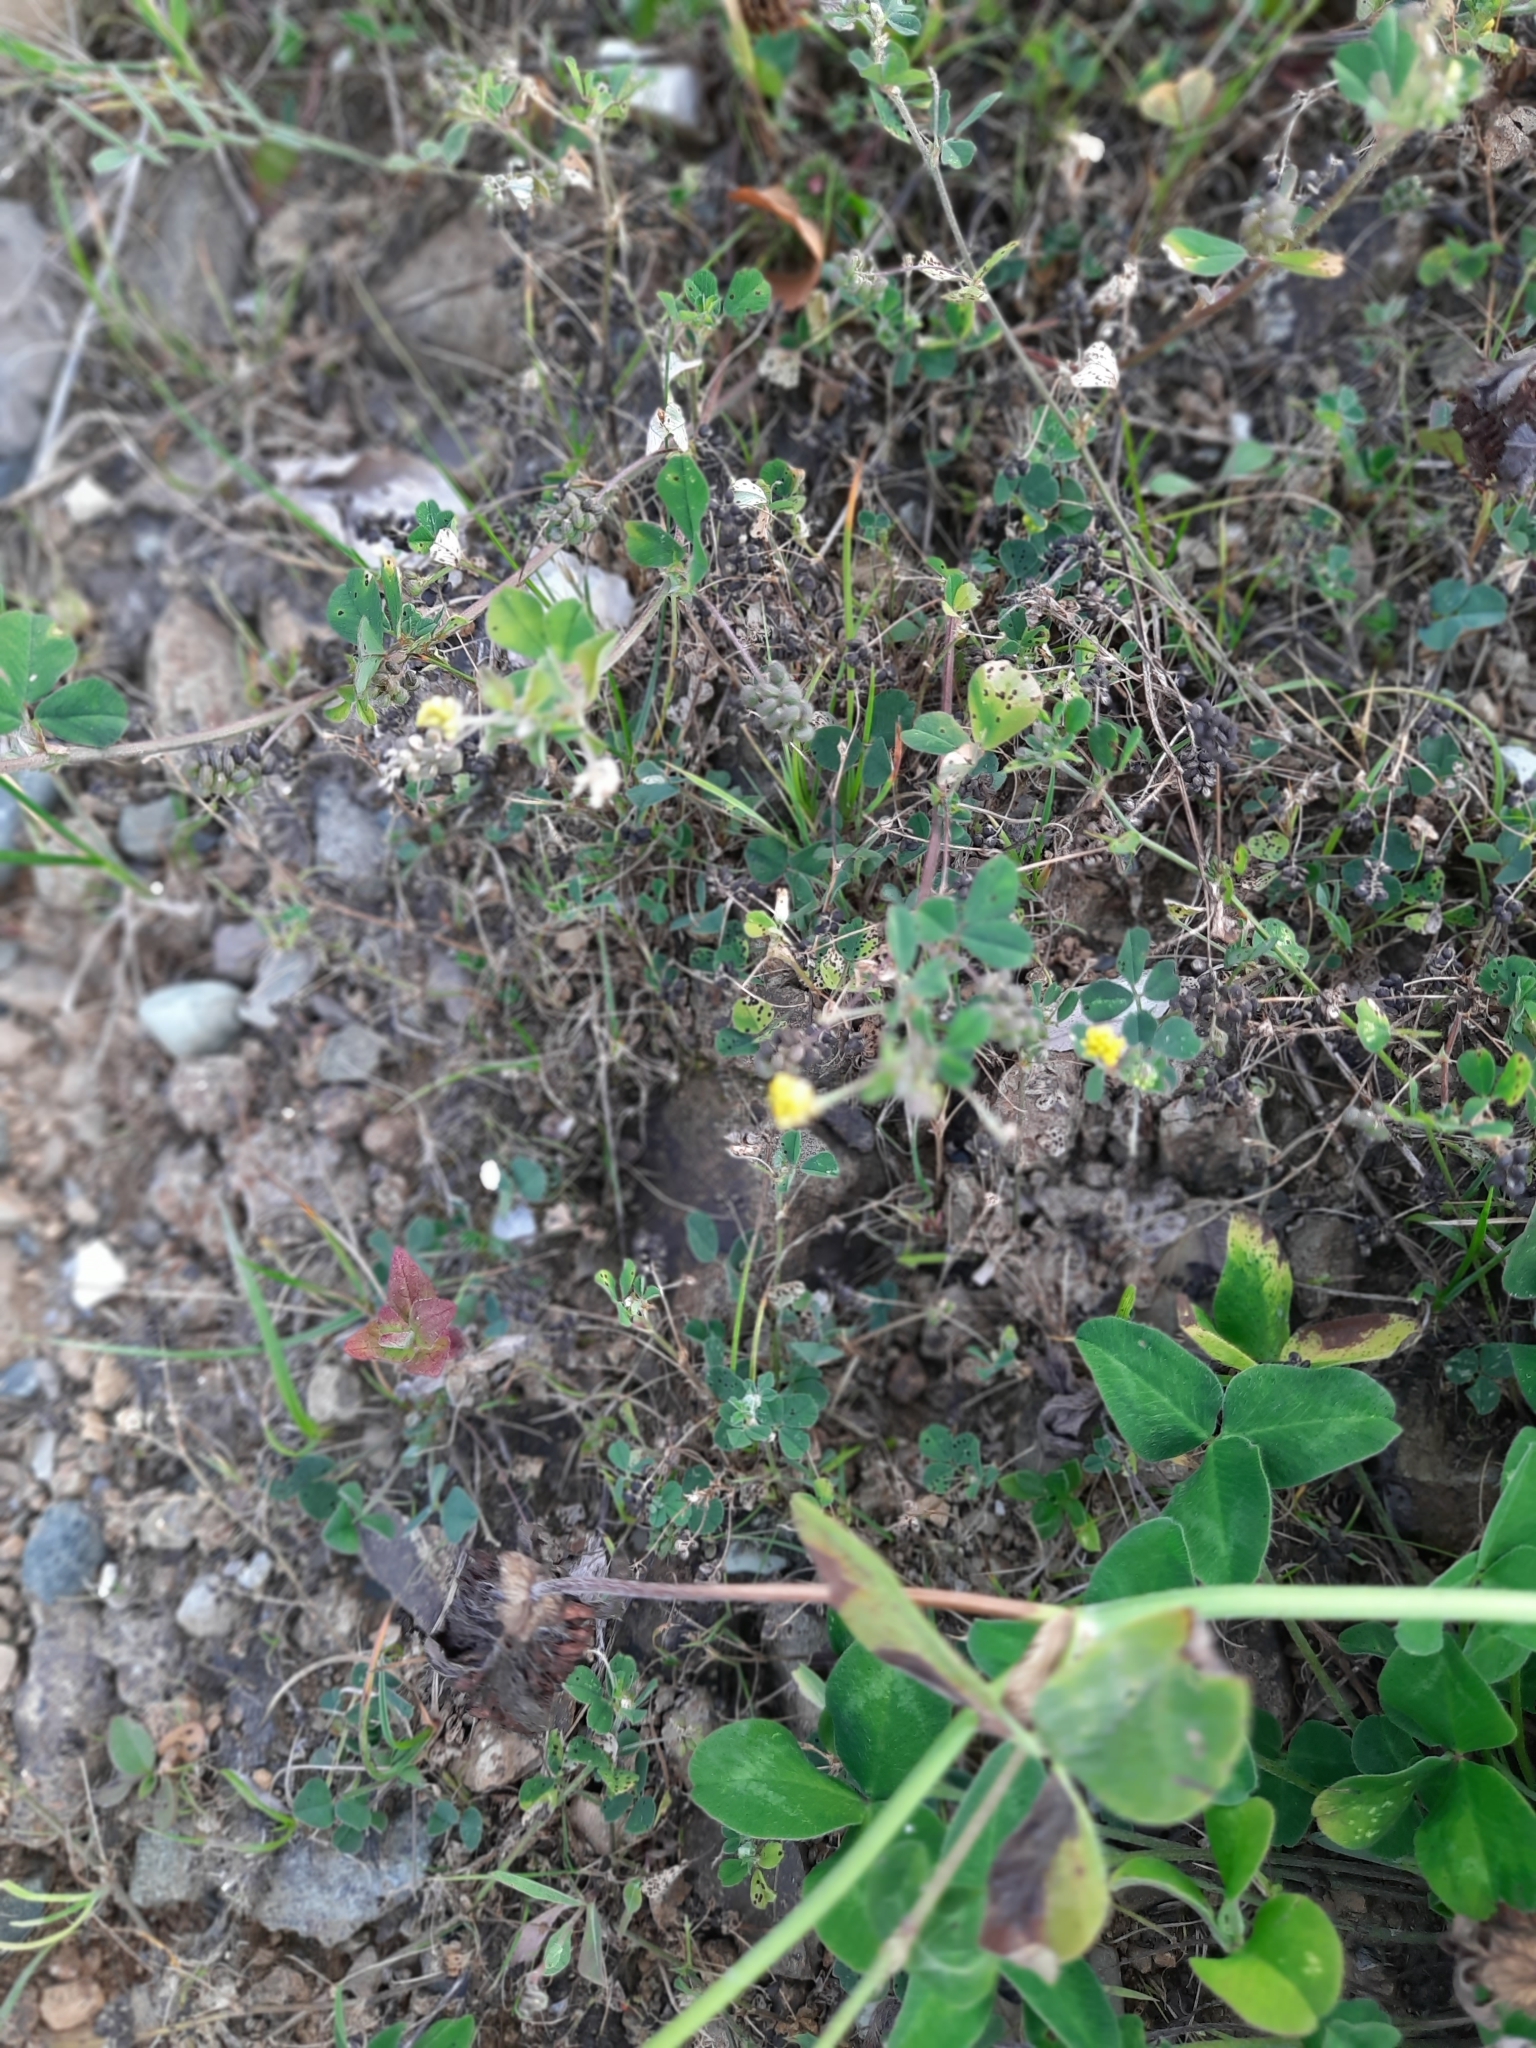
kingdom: Plantae
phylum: Tracheophyta
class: Magnoliopsida
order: Fabales
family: Fabaceae
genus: Medicago
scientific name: Medicago lupulina
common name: Black medick
